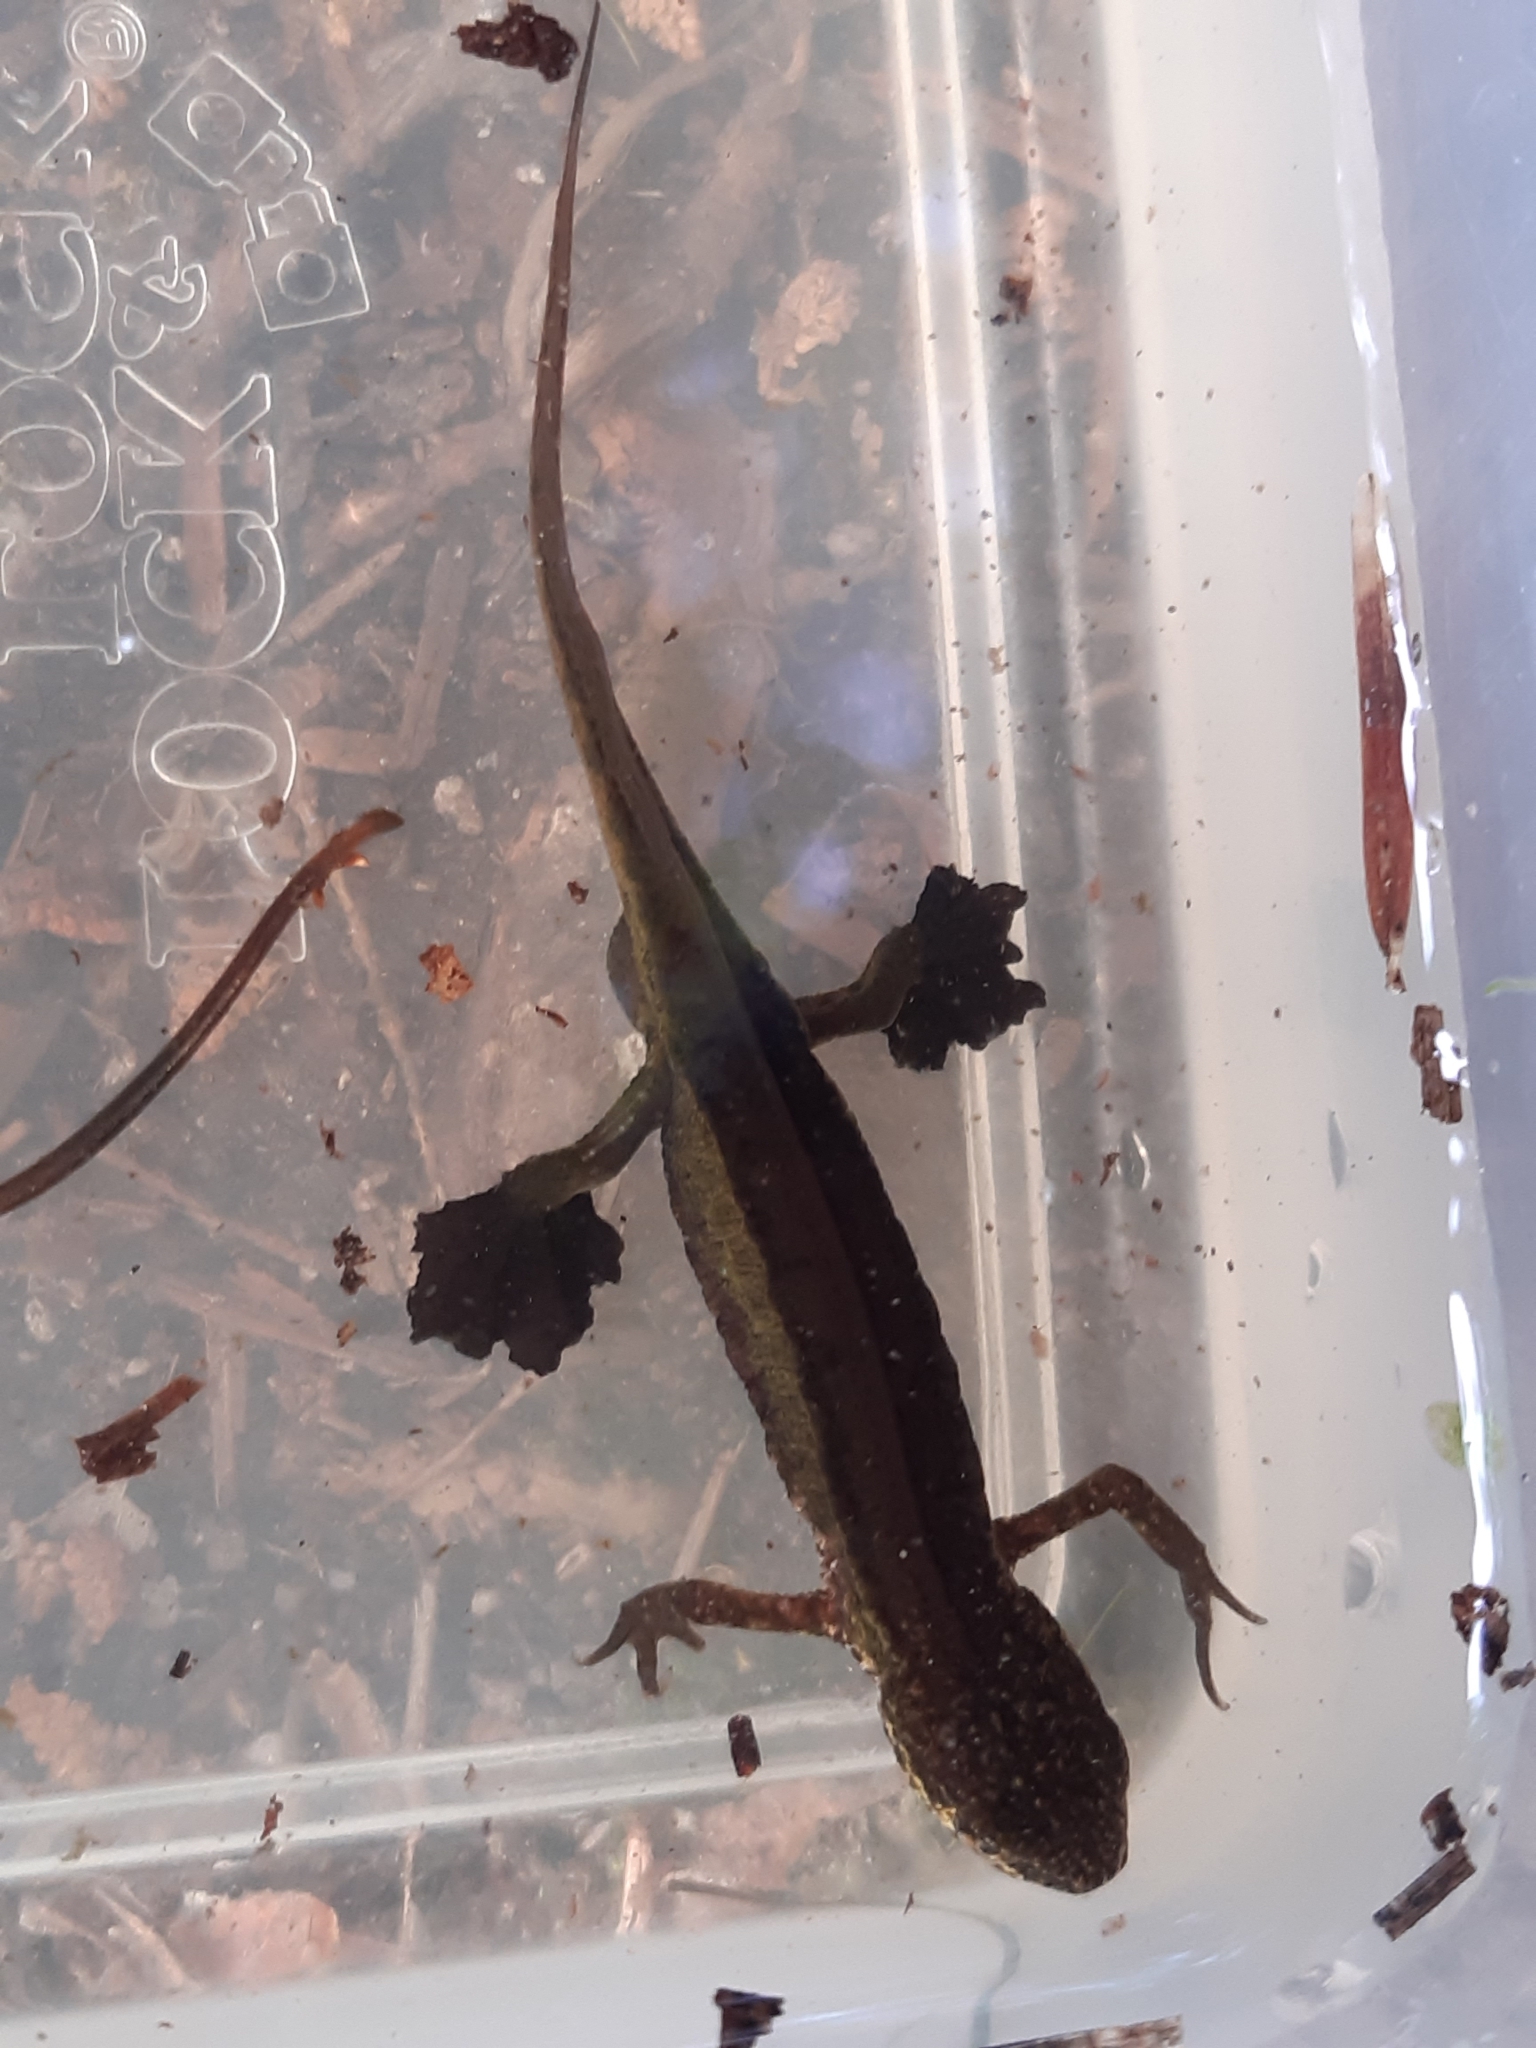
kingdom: Animalia
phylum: Chordata
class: Amphibia
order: Caudata
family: Salamandridae
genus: Lissotriton
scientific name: Lissotriton helveticus
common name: Palmate newt
